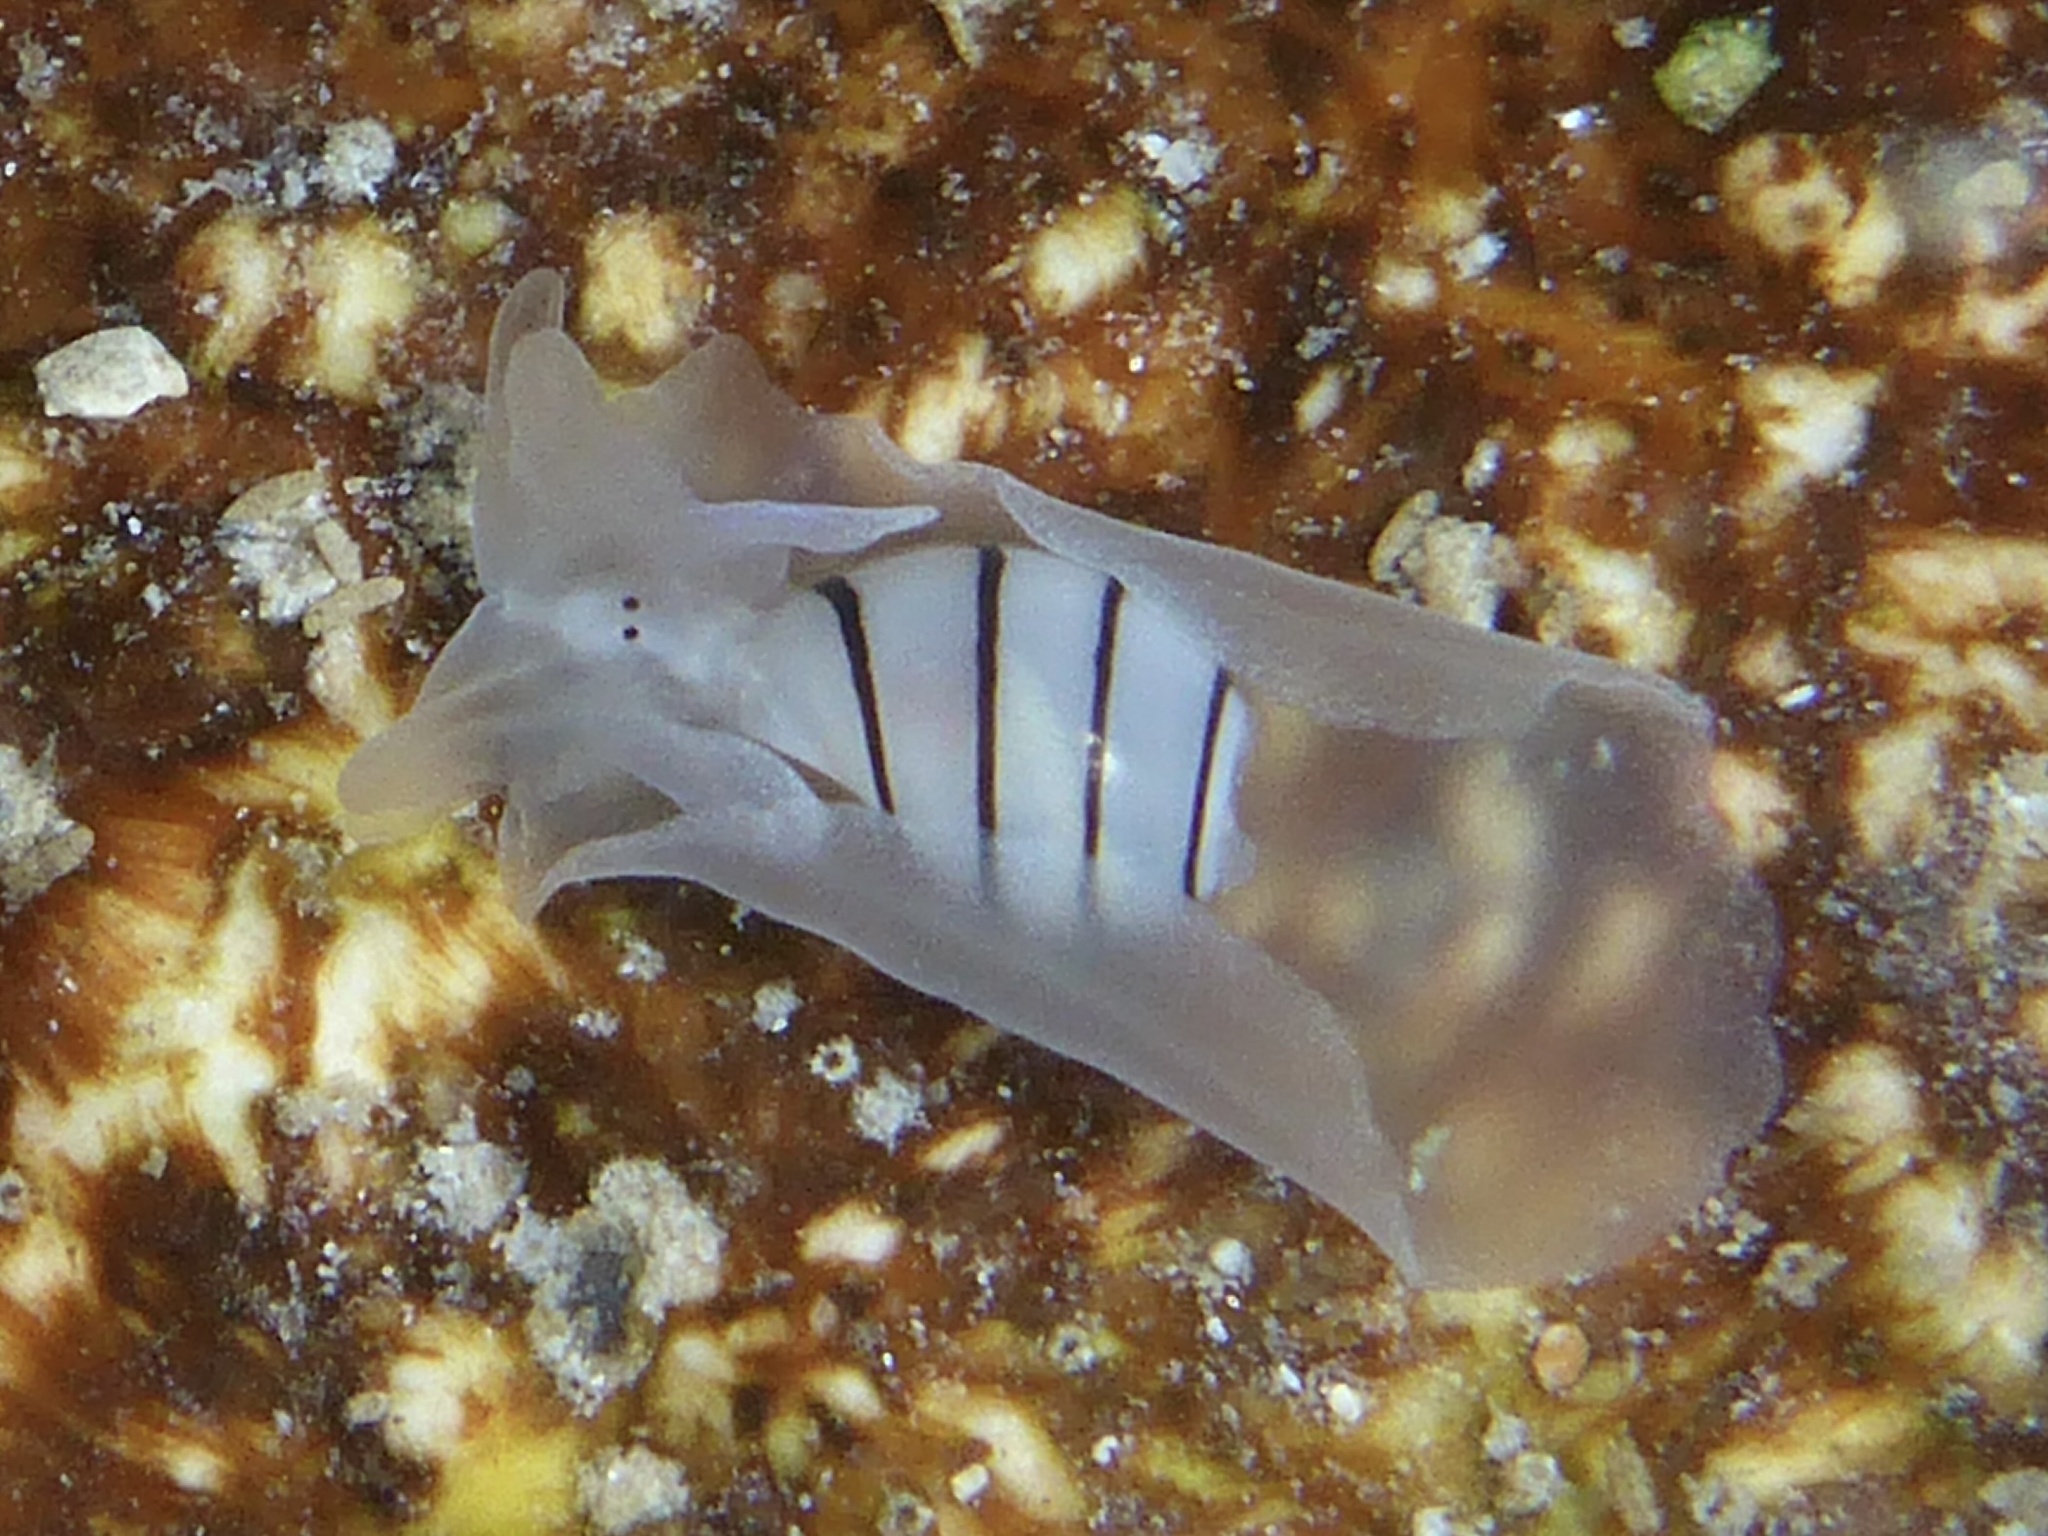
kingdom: Animalia
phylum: Mollusca
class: Gastropoda
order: Cephalaspidea
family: Aplustridae
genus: Aplustrum
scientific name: Aplustrum amplustre
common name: Royal paperbubble
